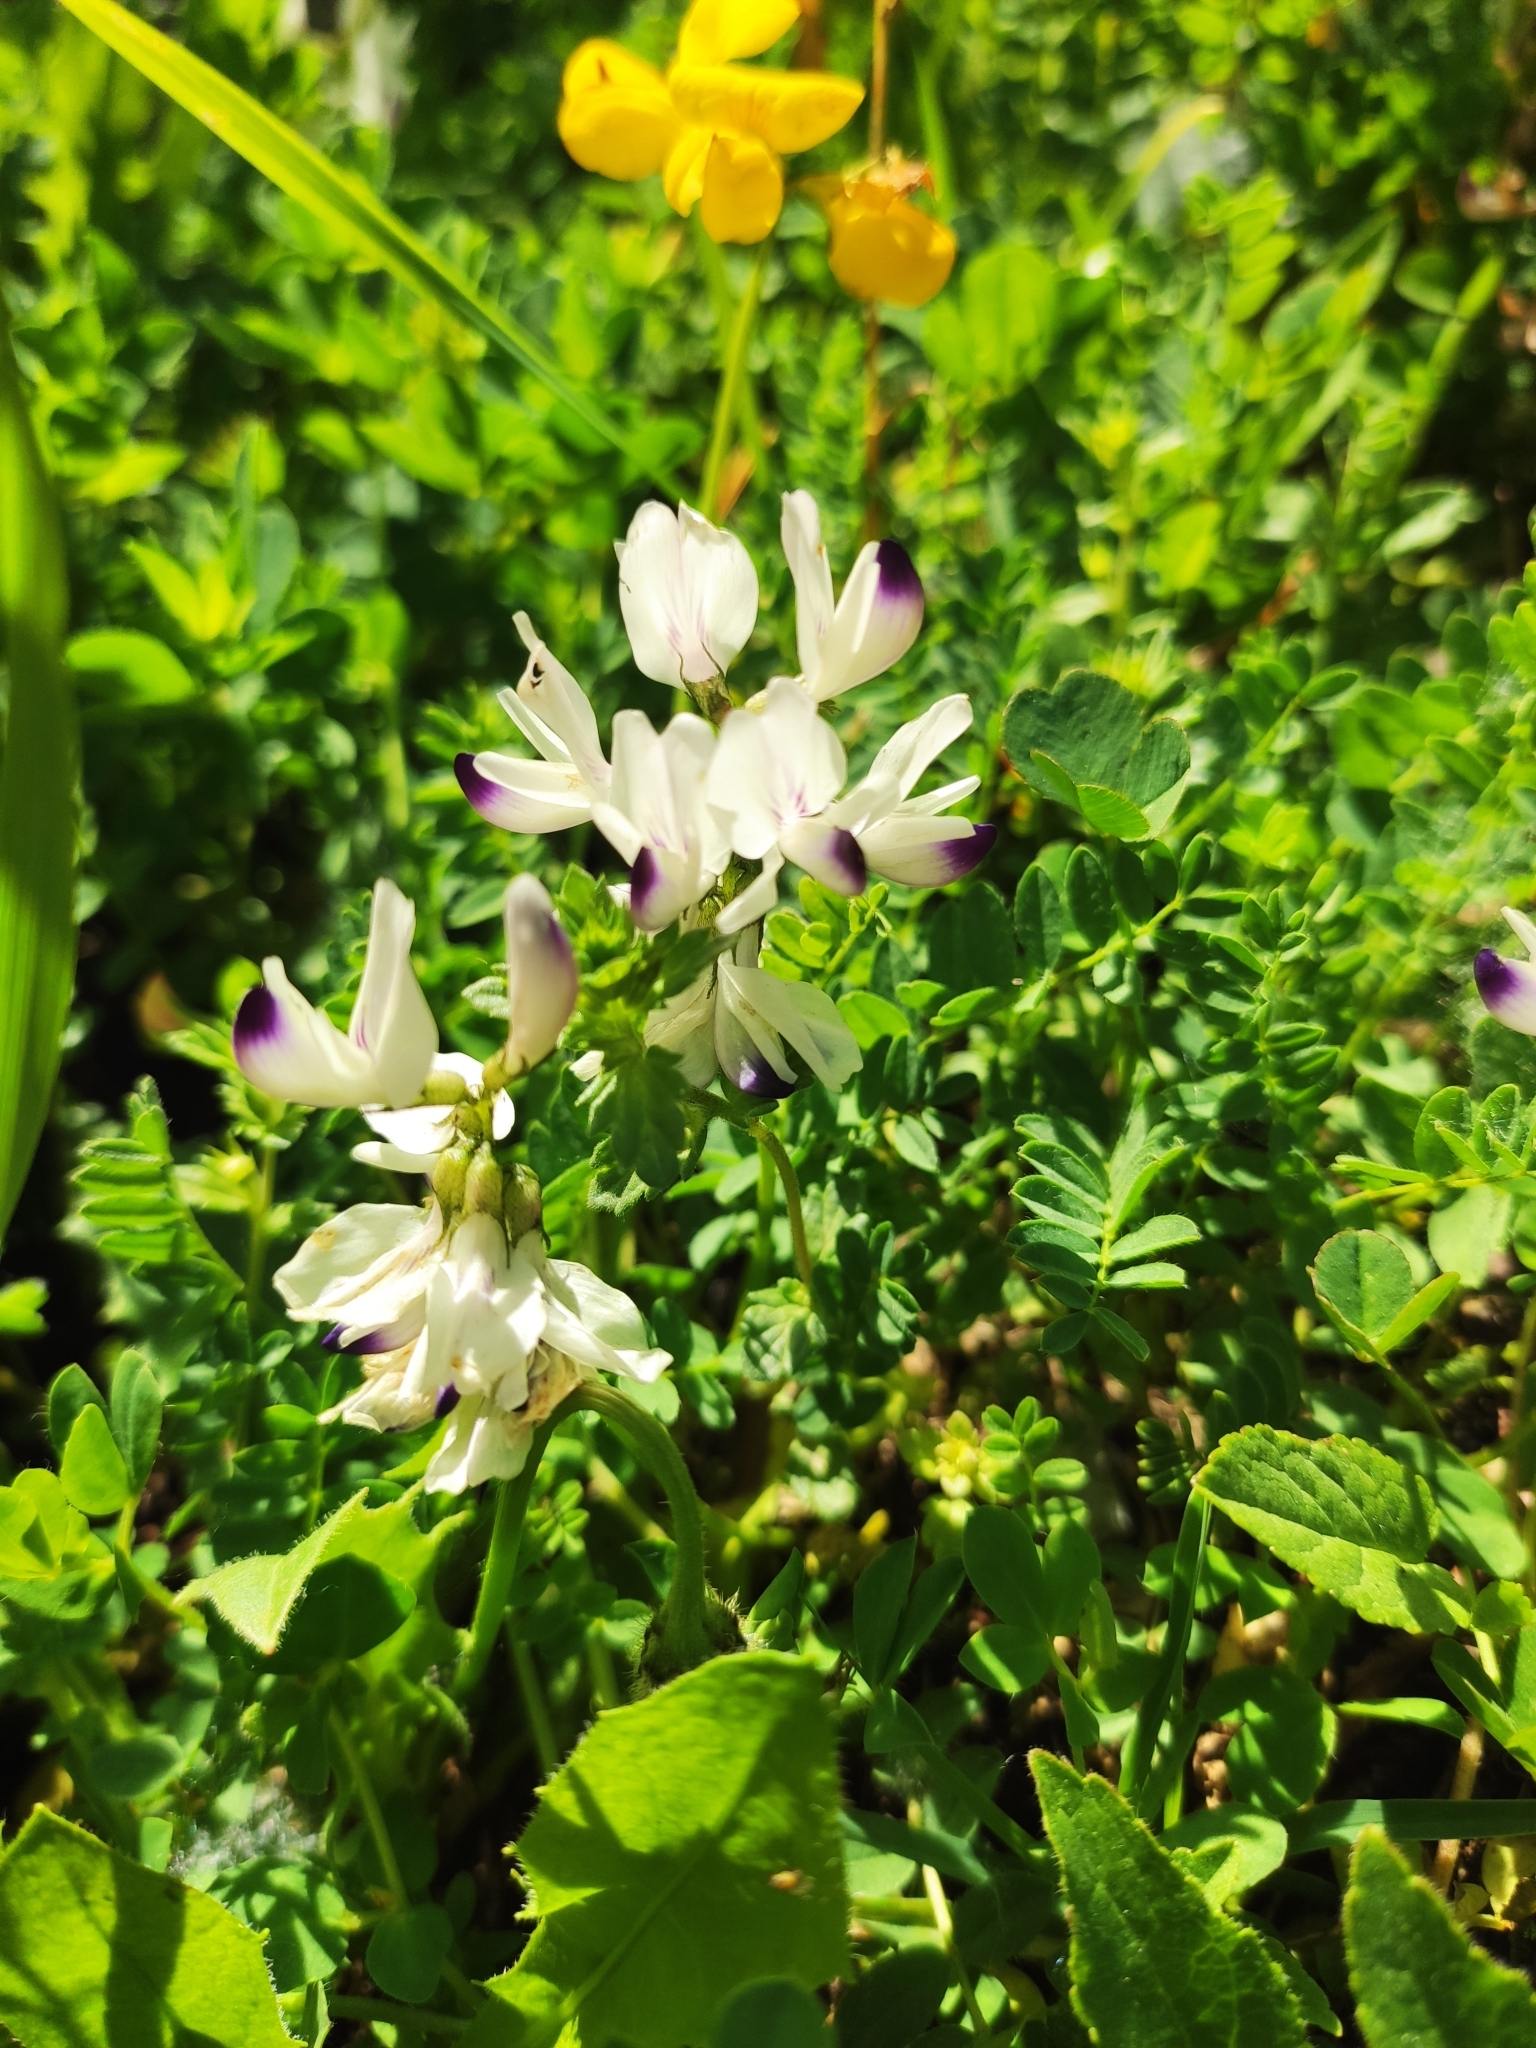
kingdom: Plantae
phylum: Tracheophyta
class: Magnoliopsida
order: Fabales
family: Fabaceae
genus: Astragalus
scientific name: Astragalus alpinus
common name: Alpine milk-vetch
